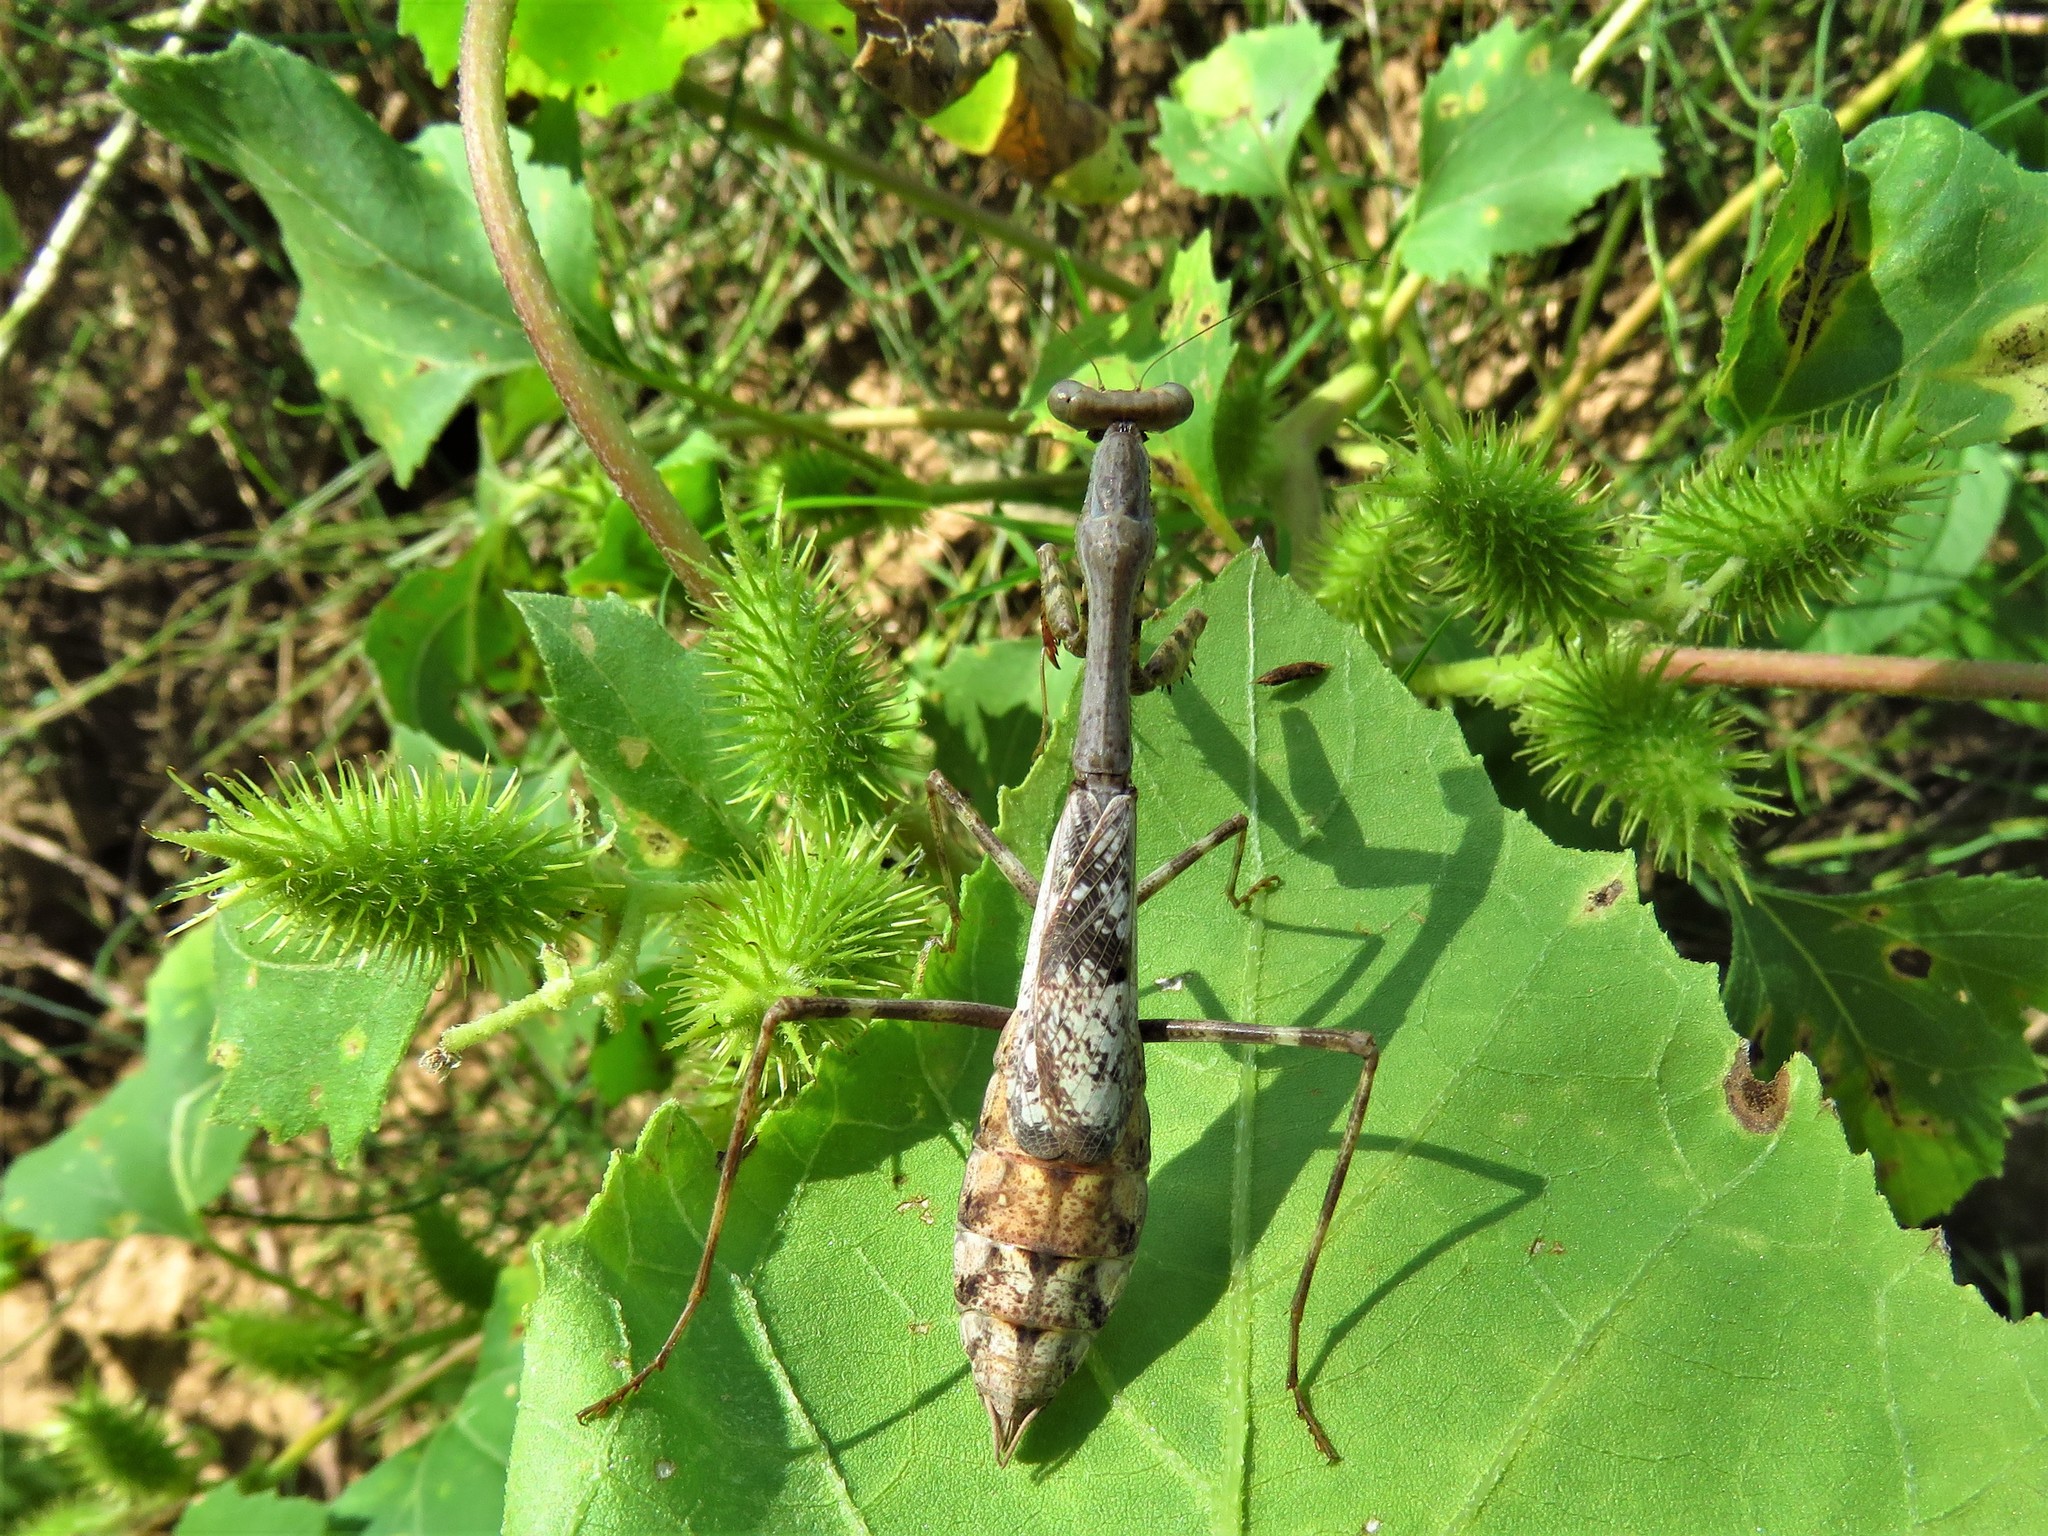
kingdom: Animalia
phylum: Arthropoda
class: Insecta
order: Mantodea
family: Mantidae
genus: Stagmomantis
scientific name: Stagmomantis carolina
